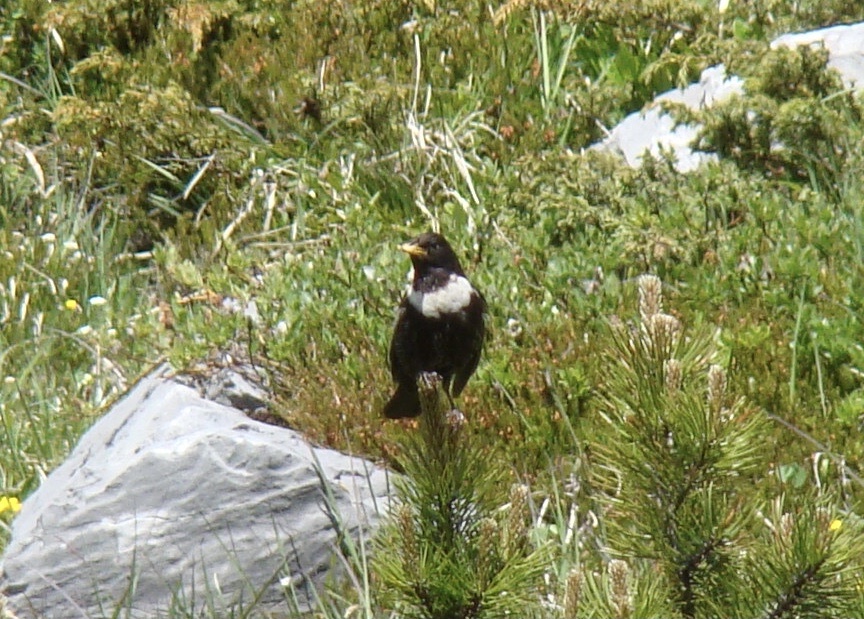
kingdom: Animalia
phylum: Chordata
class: Aves
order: Passeriformes
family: Turdidae
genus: Turdus
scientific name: Turdus torquatus
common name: Ring ouzel
